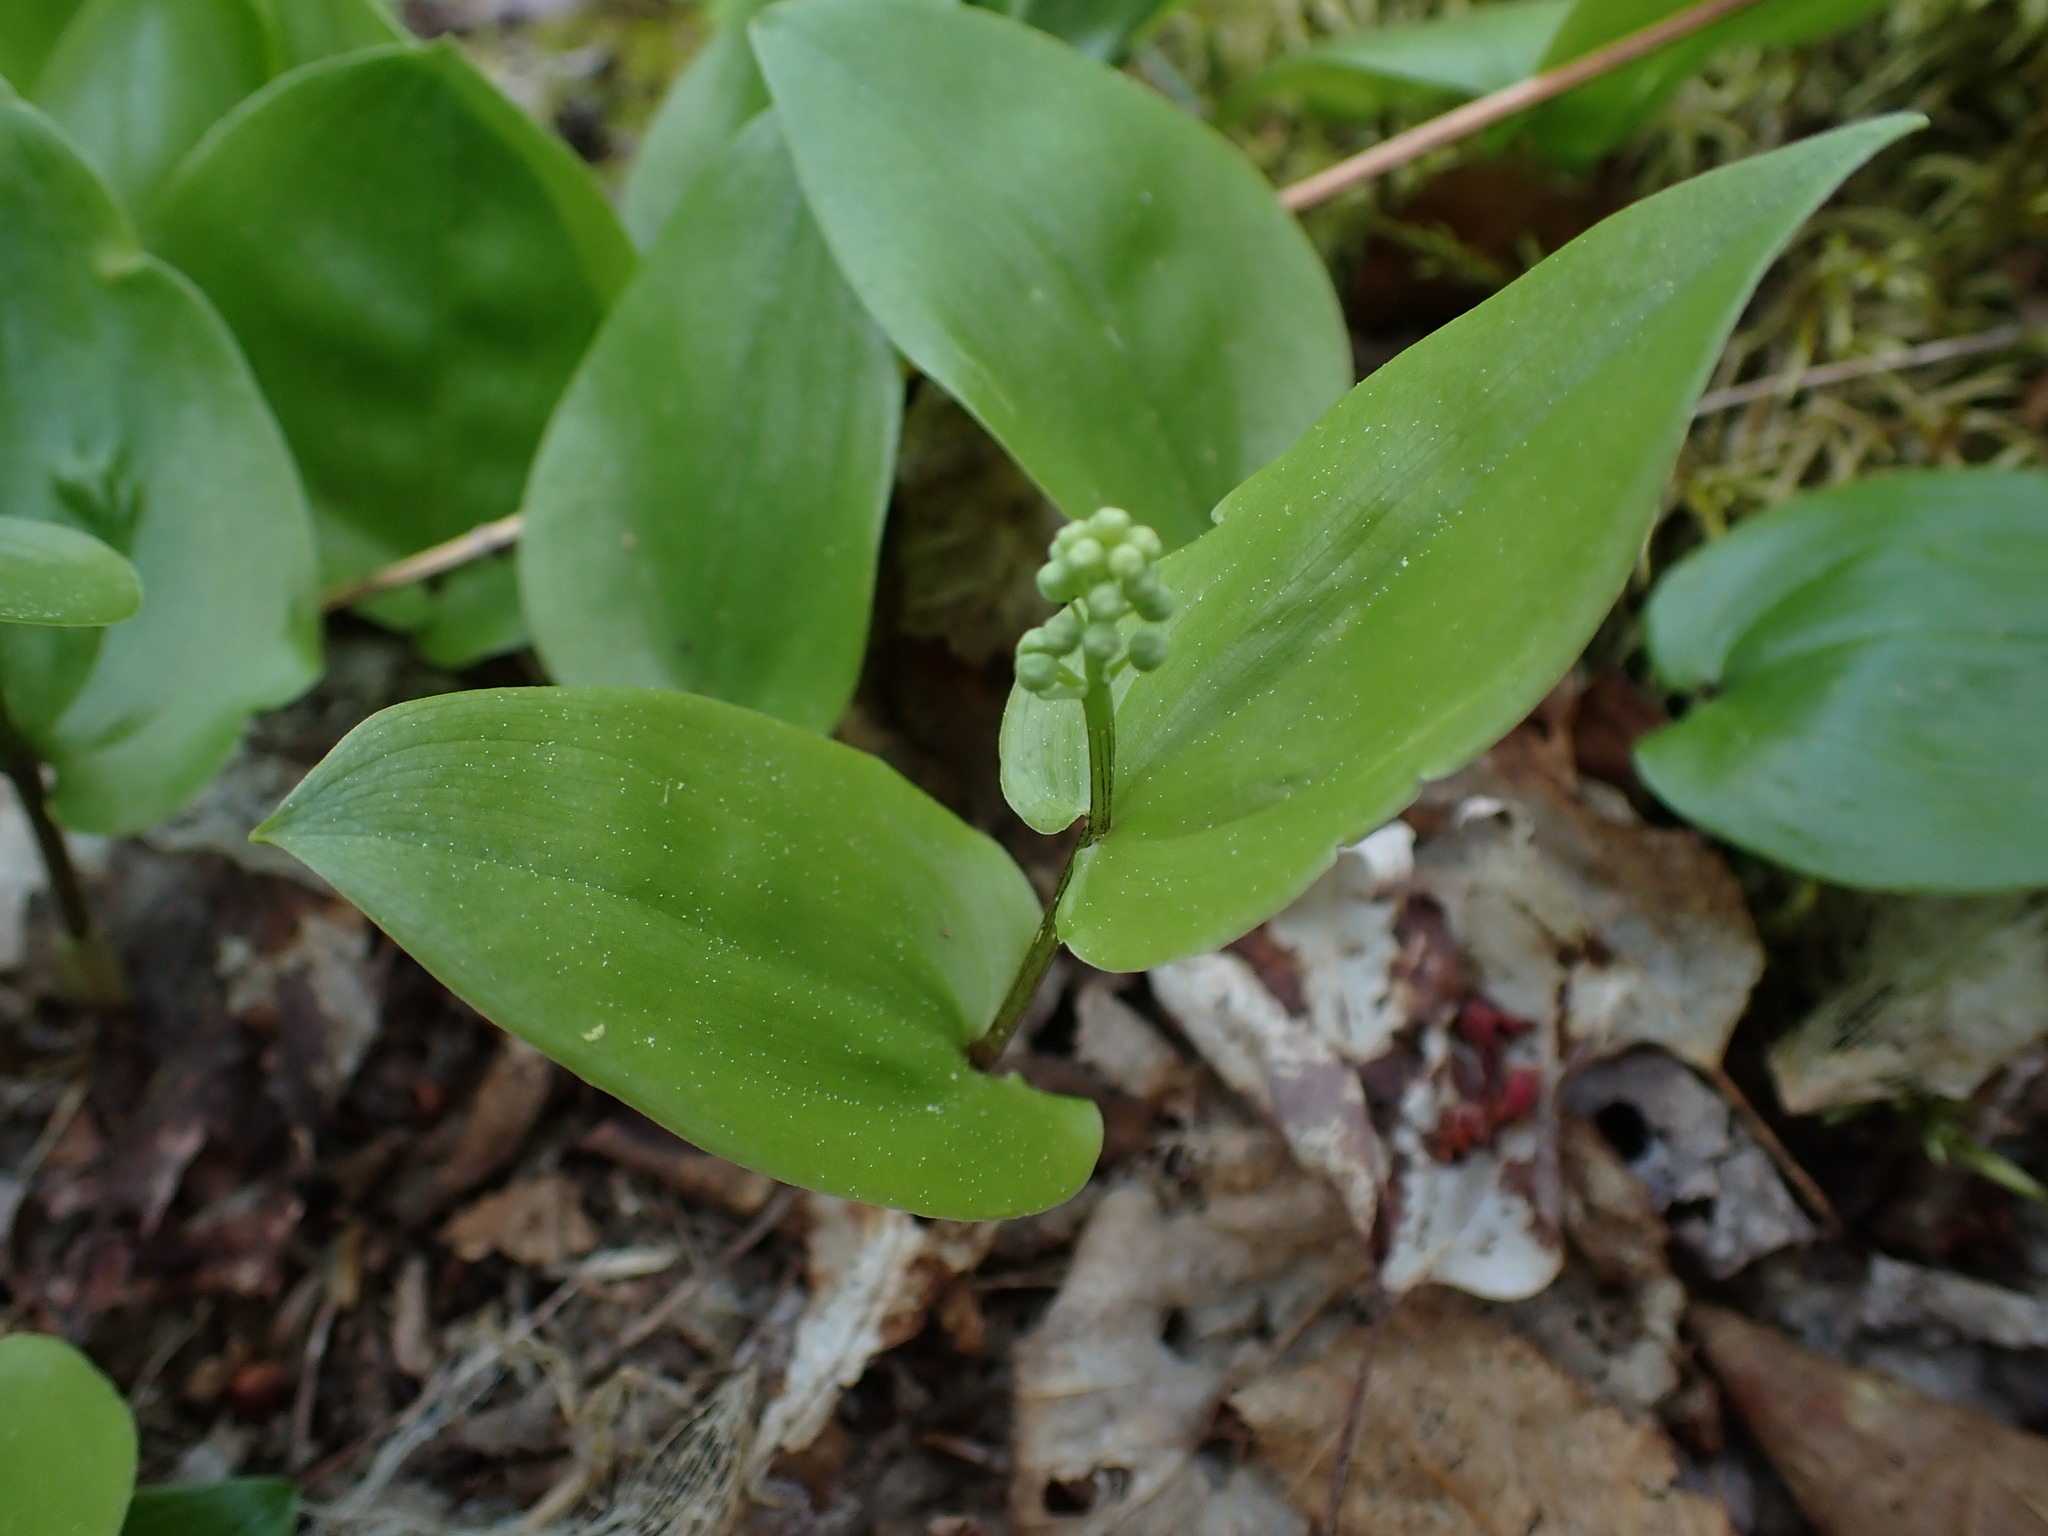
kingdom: Plantae
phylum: Tracheophyta
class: Liliopsida
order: Asparagales
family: Asparagaceae
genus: Maianthemum
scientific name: Maianthemum canadense
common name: False lily-of-the-valley
